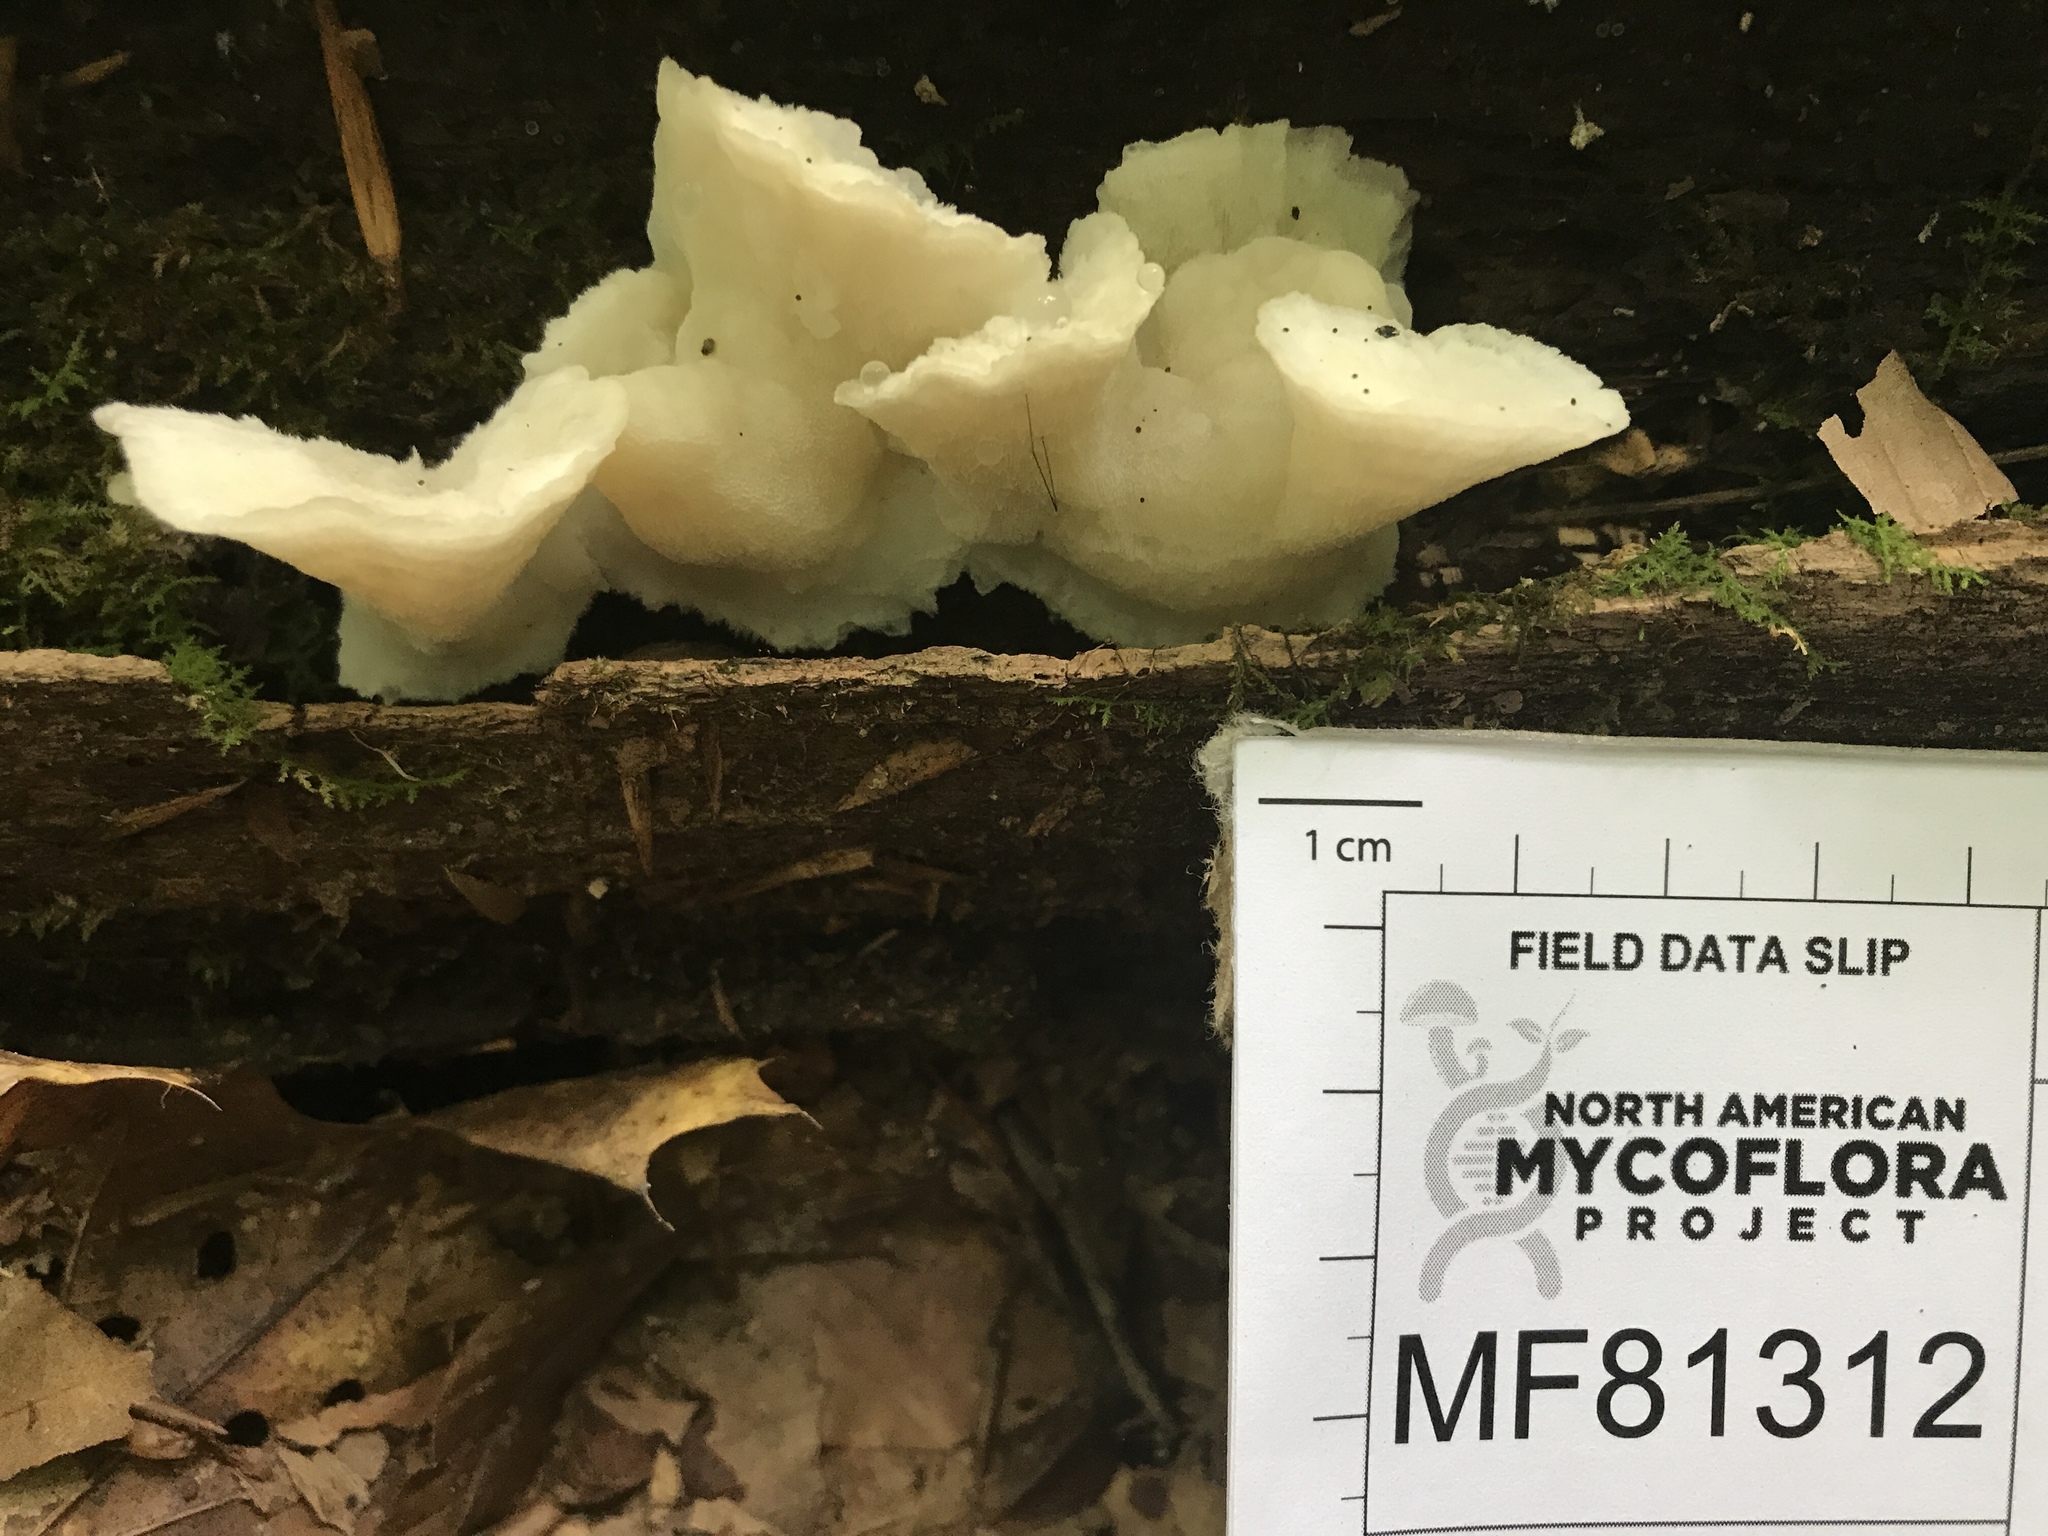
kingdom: Fungi
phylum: Basidiomycota
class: Agaricomycetes
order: Polyporales
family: Incrustoporiaceae
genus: Tyromyces
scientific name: Tyromyces galactinus
